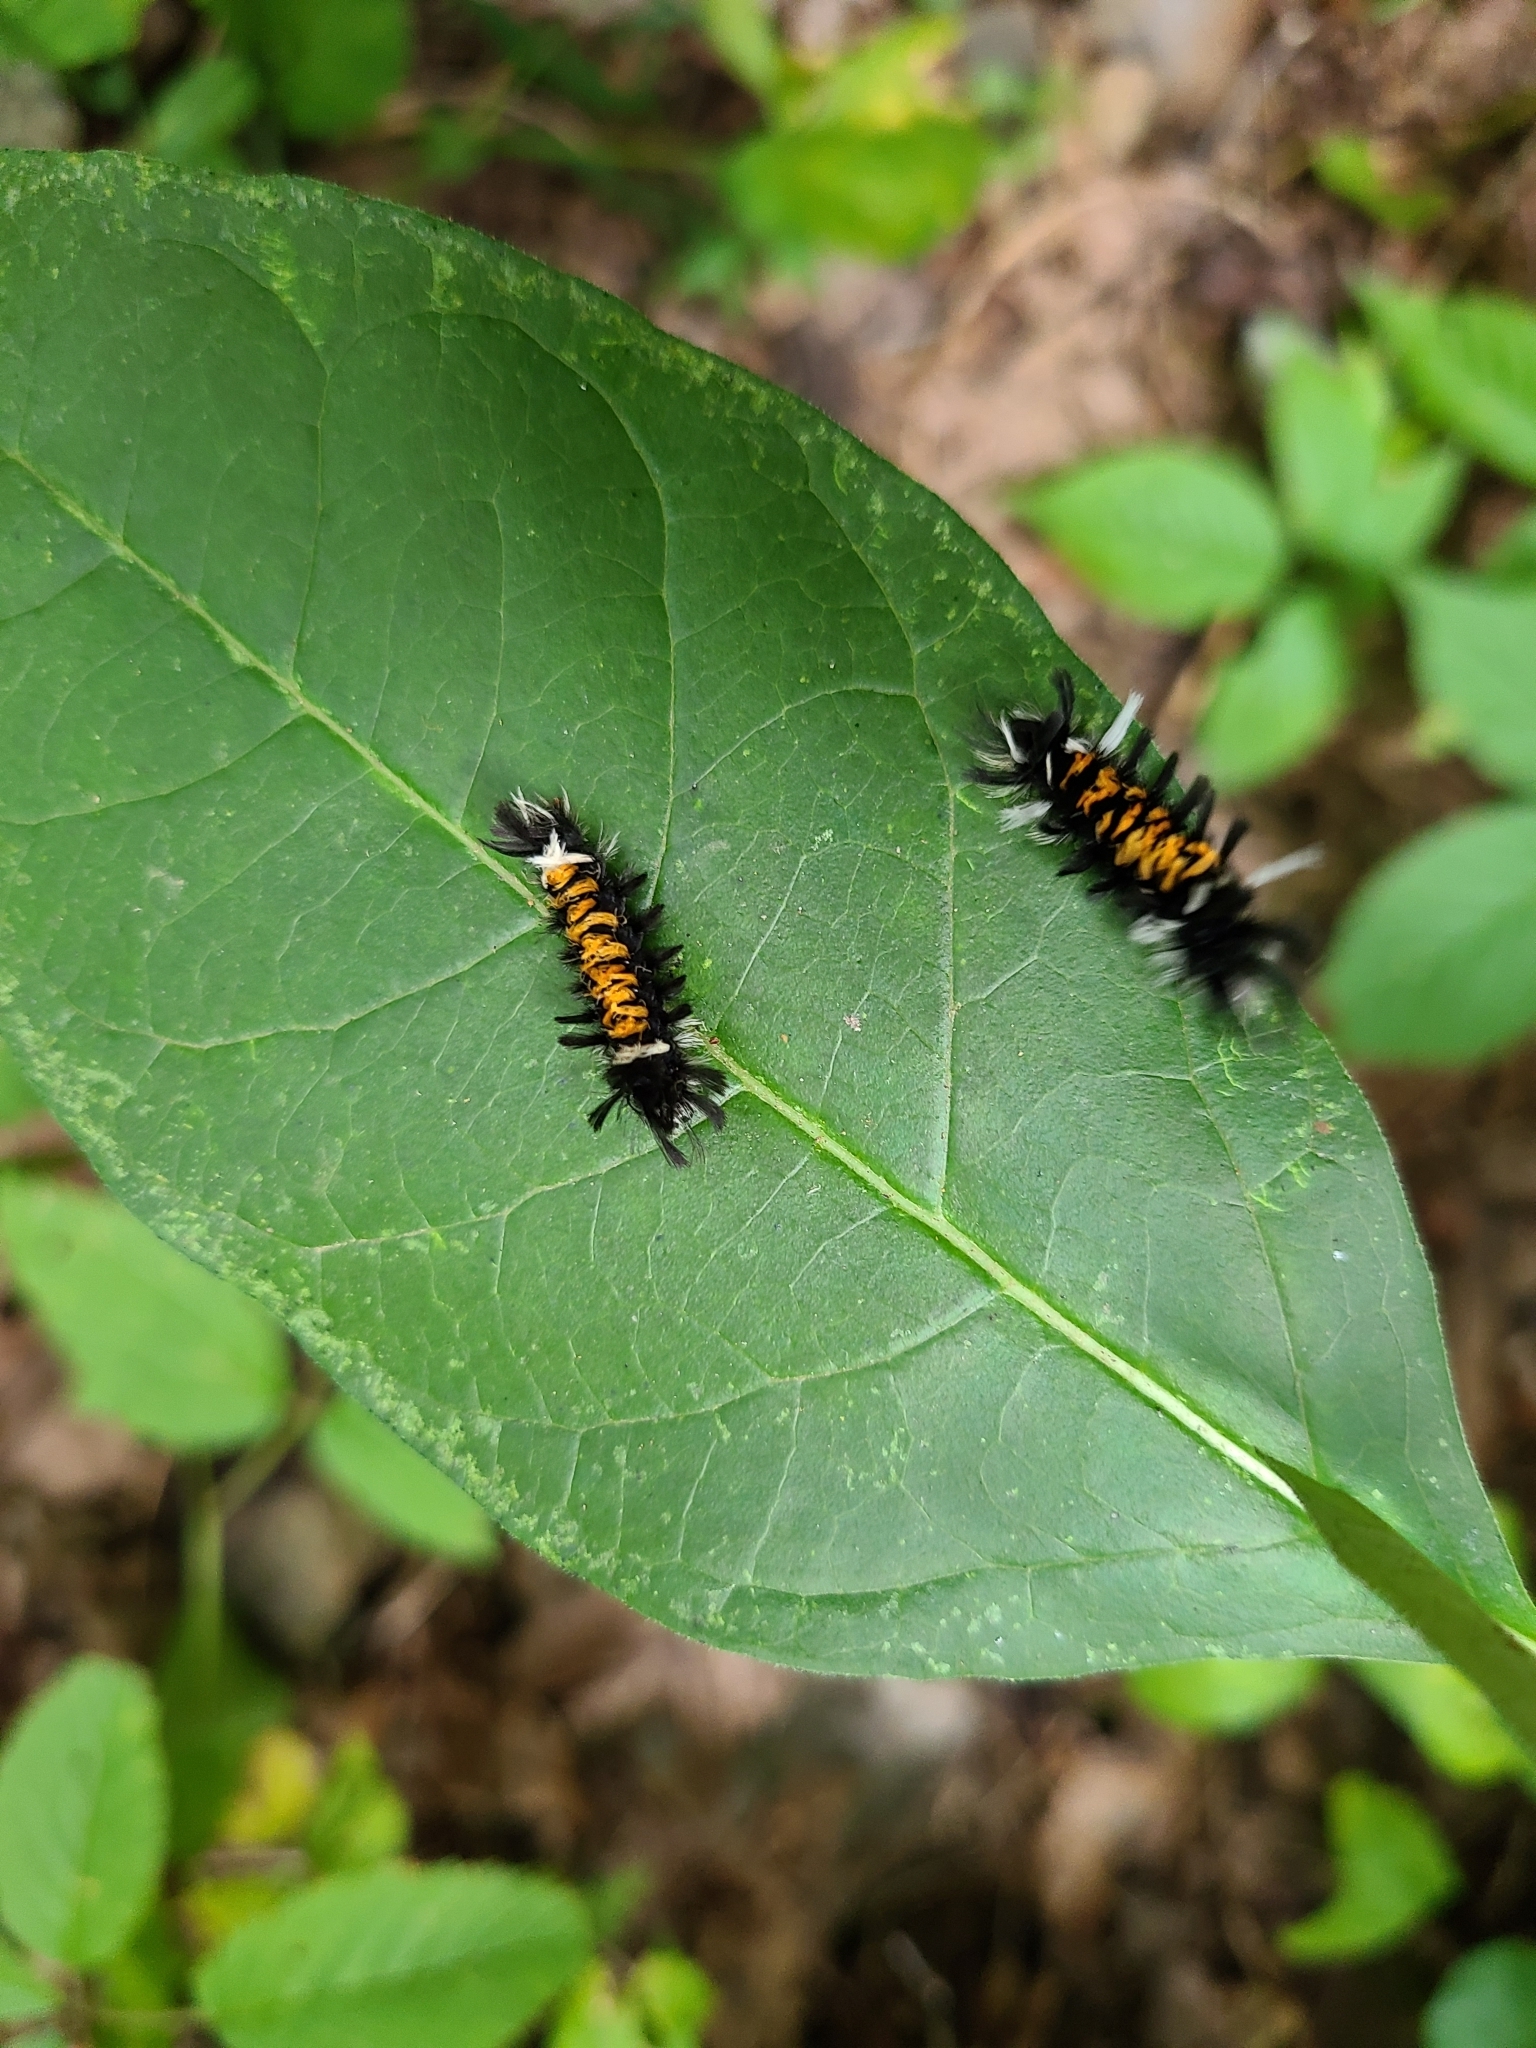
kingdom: Animalia
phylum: Arthropoda
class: Insecta
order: Lepidoptera
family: Erebidae
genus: Euchaetes
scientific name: Euchaetes egle
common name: Milkweed tussock moth
